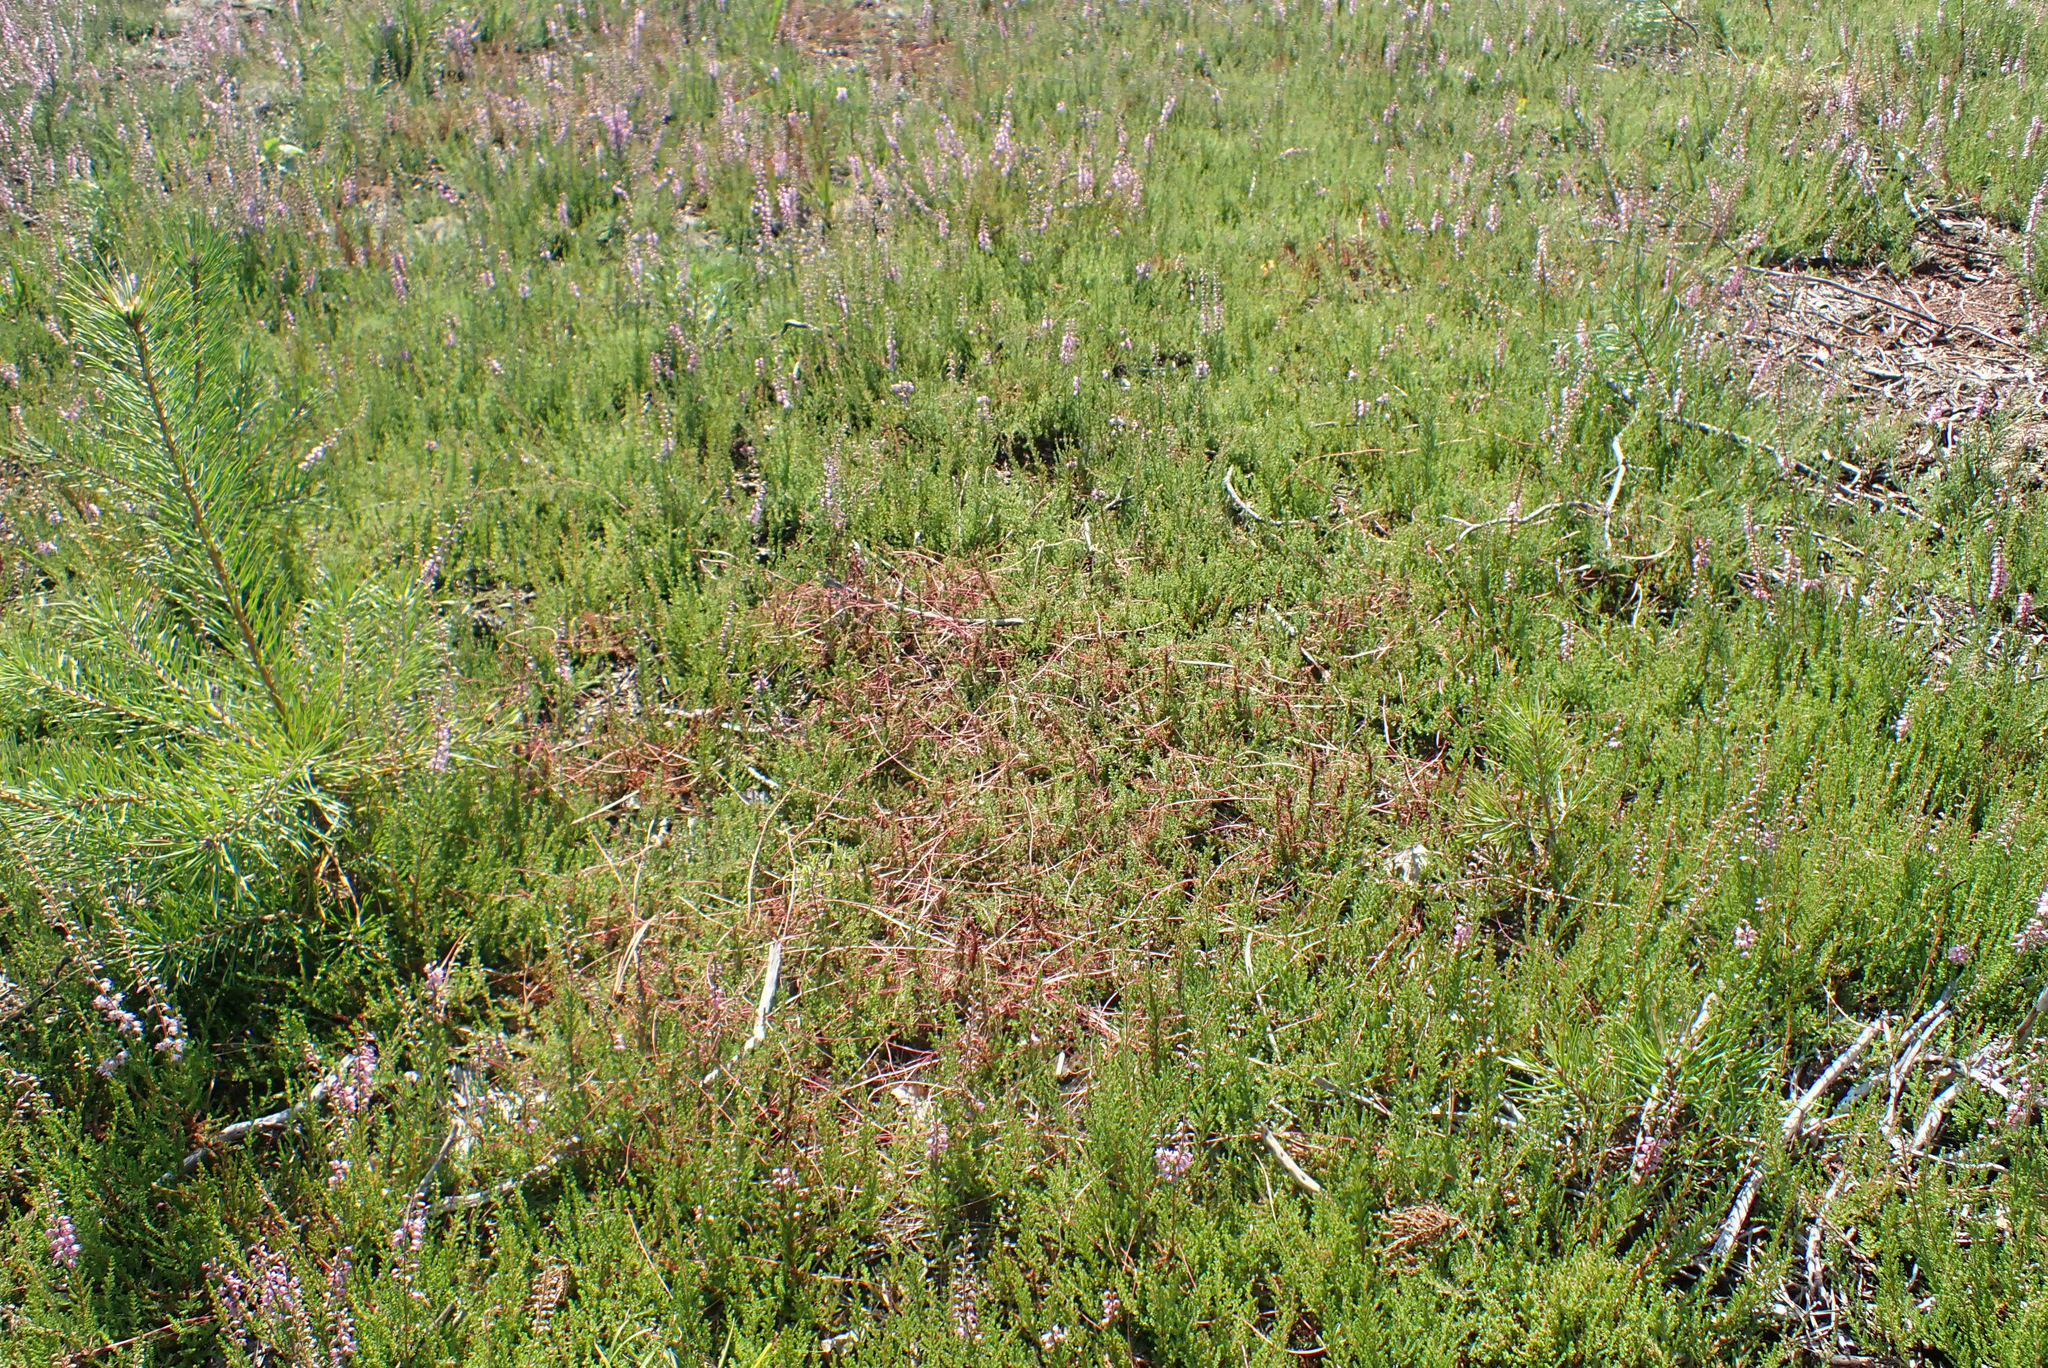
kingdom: Plantae
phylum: Tracheophyta
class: Magnoliopsida
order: Solanales
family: Convolvulaceae
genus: Cuscuta
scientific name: Cuscuta epithymum
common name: Clover dodder
